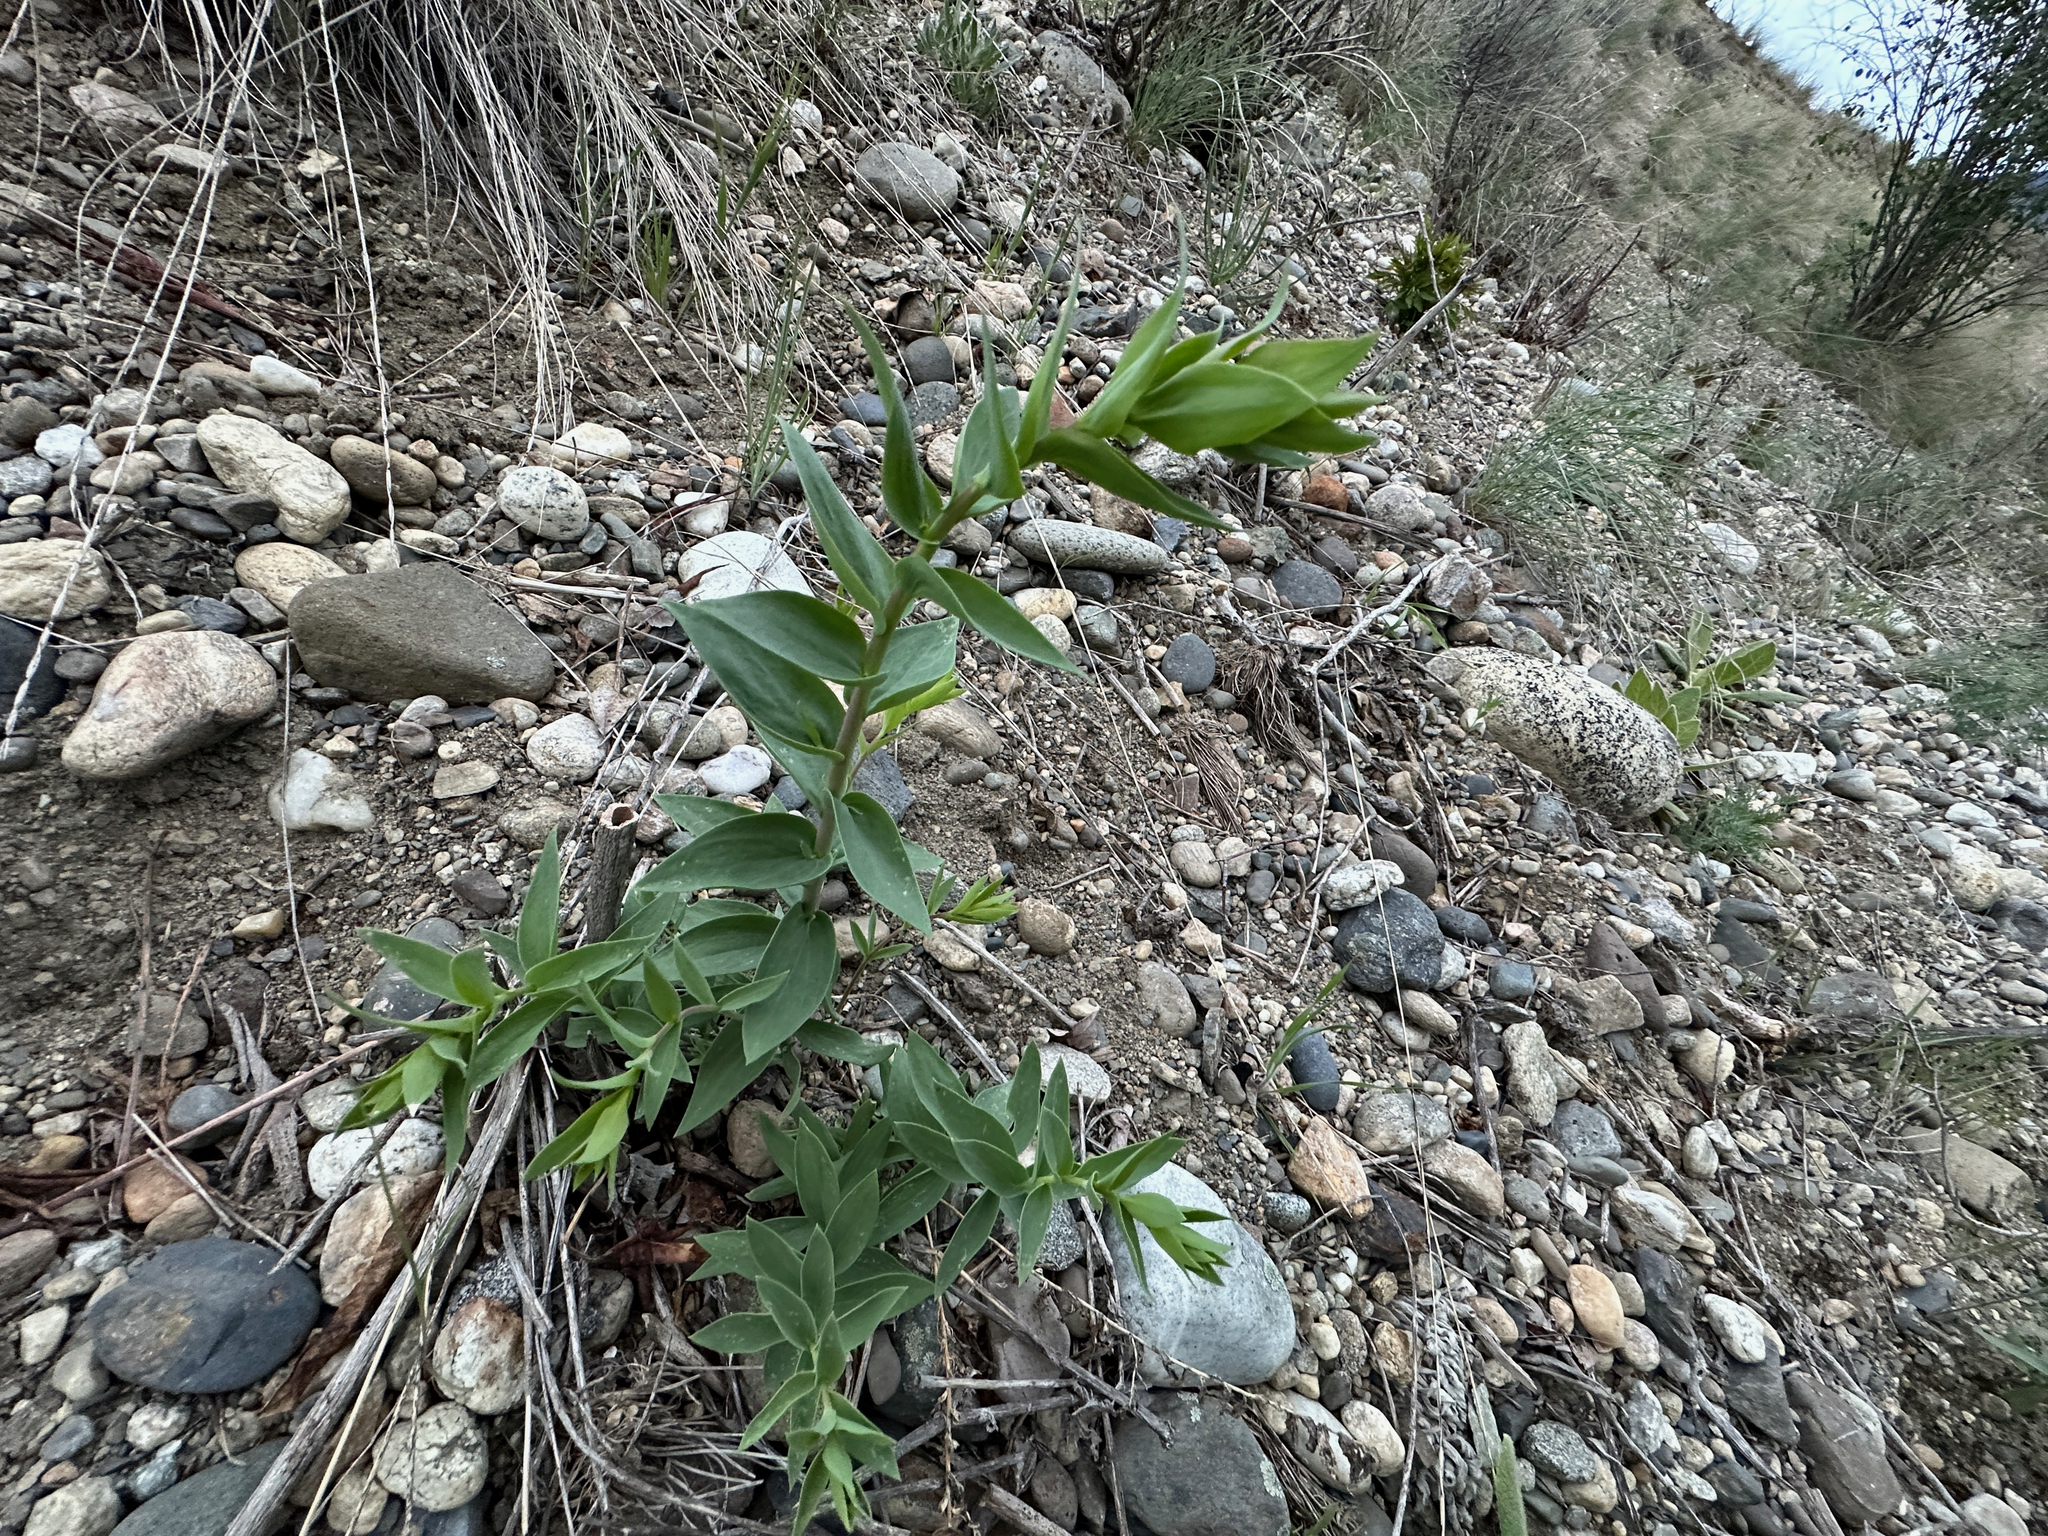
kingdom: Plantae
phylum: Tracheophyta
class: Magnoliopsida
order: Lamiales
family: Plantaginaceae
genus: Linaria
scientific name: Linaria dalmatica
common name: Dalmatian toadflax
